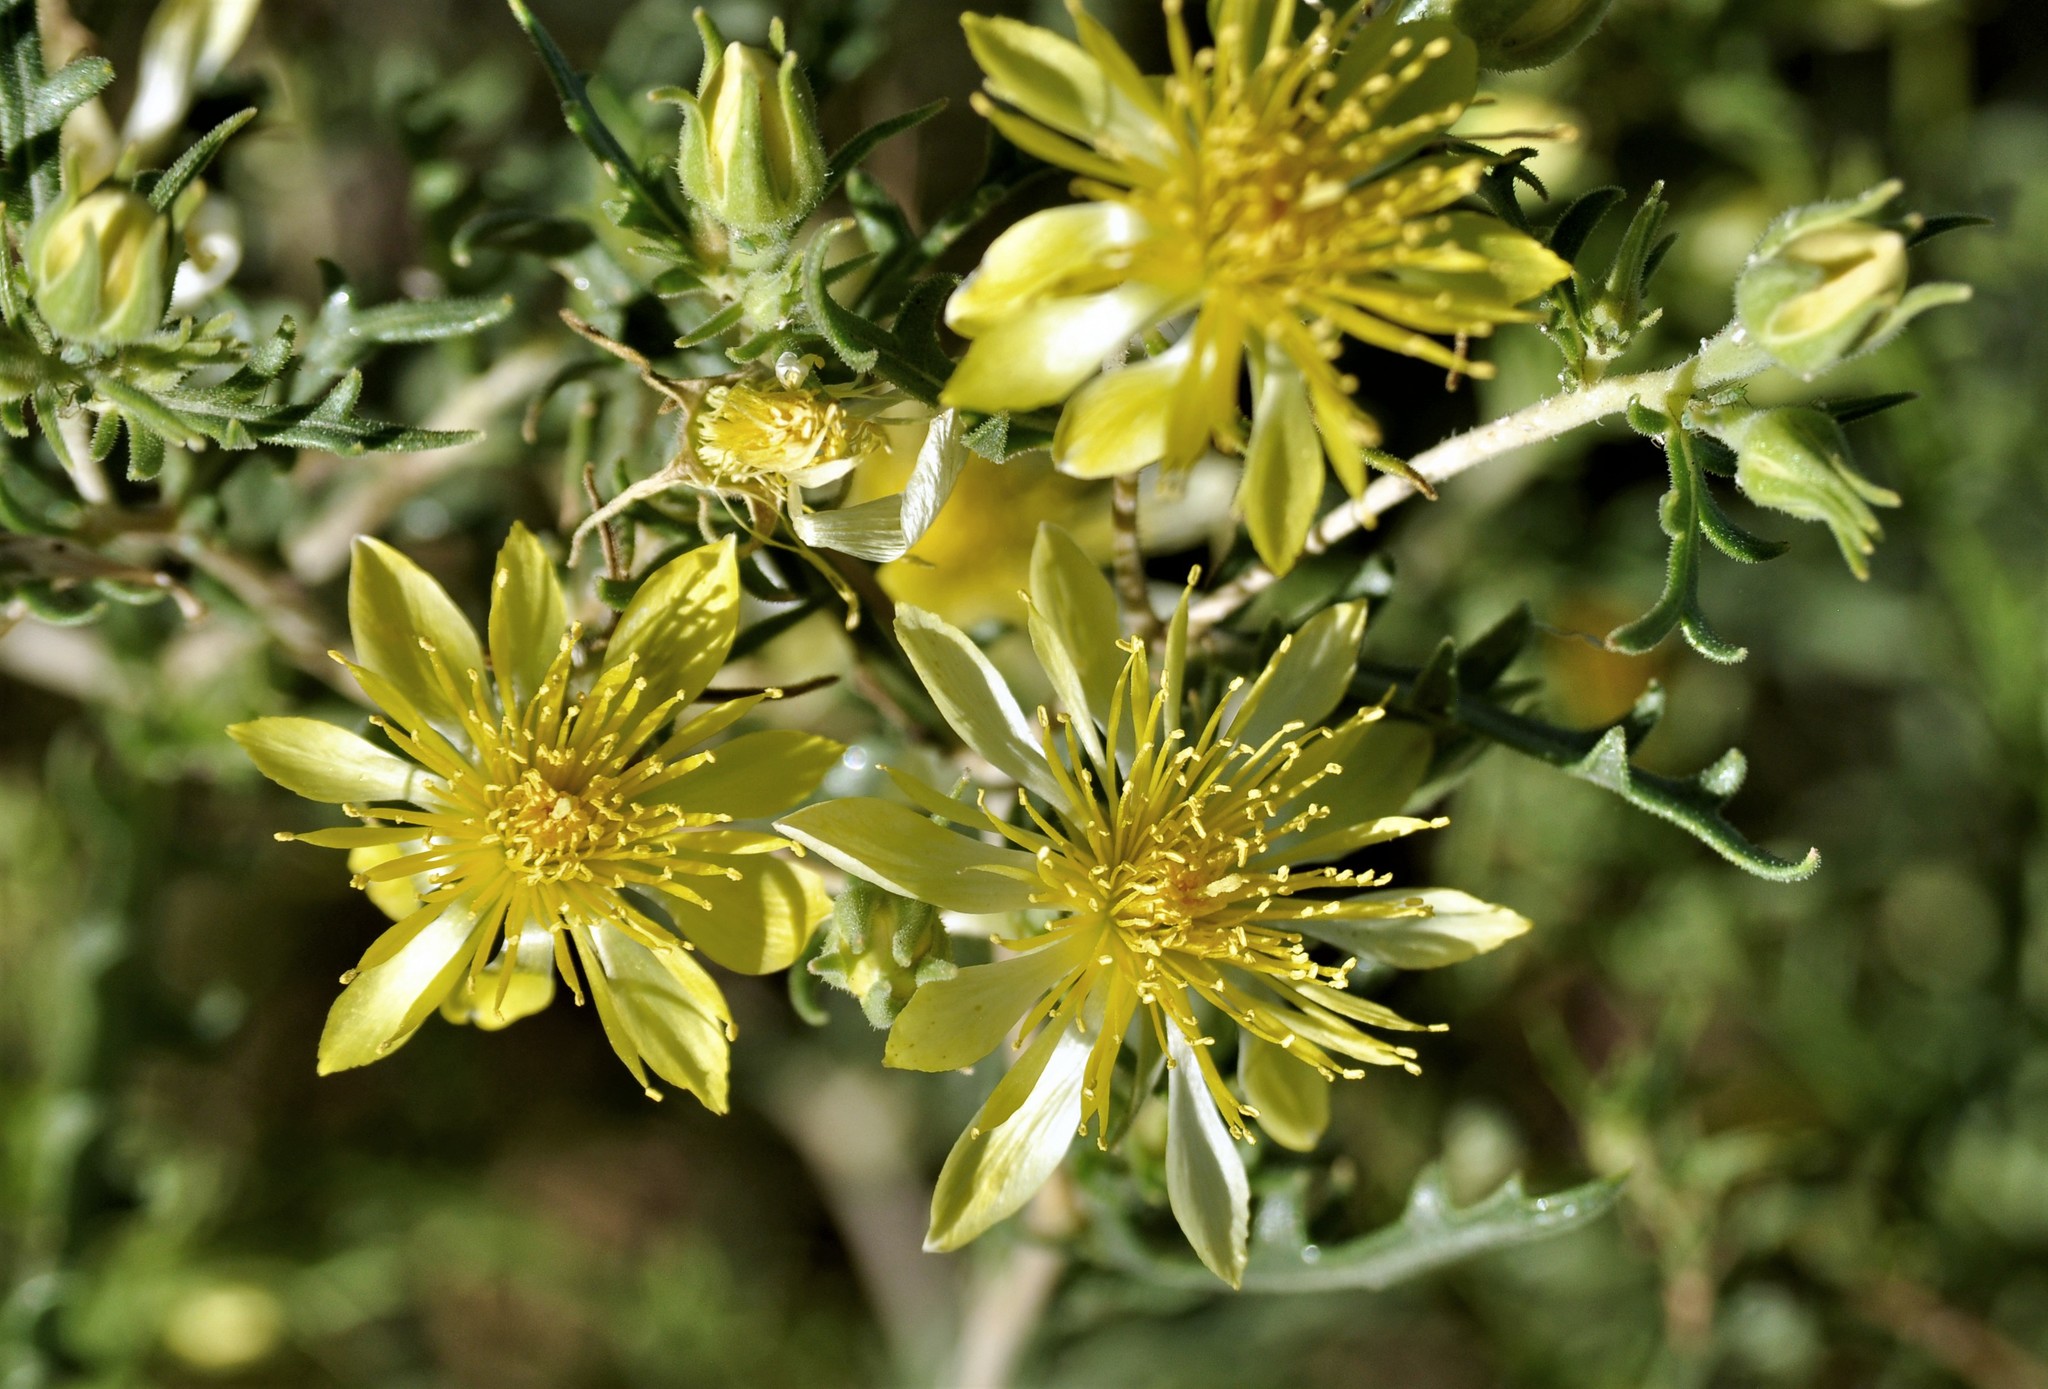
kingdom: Plantae
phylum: Tracheophyta
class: Magnoliopsida
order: Cornales
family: Loasaceae
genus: Mentzelia
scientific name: Mentzelia longiloba
